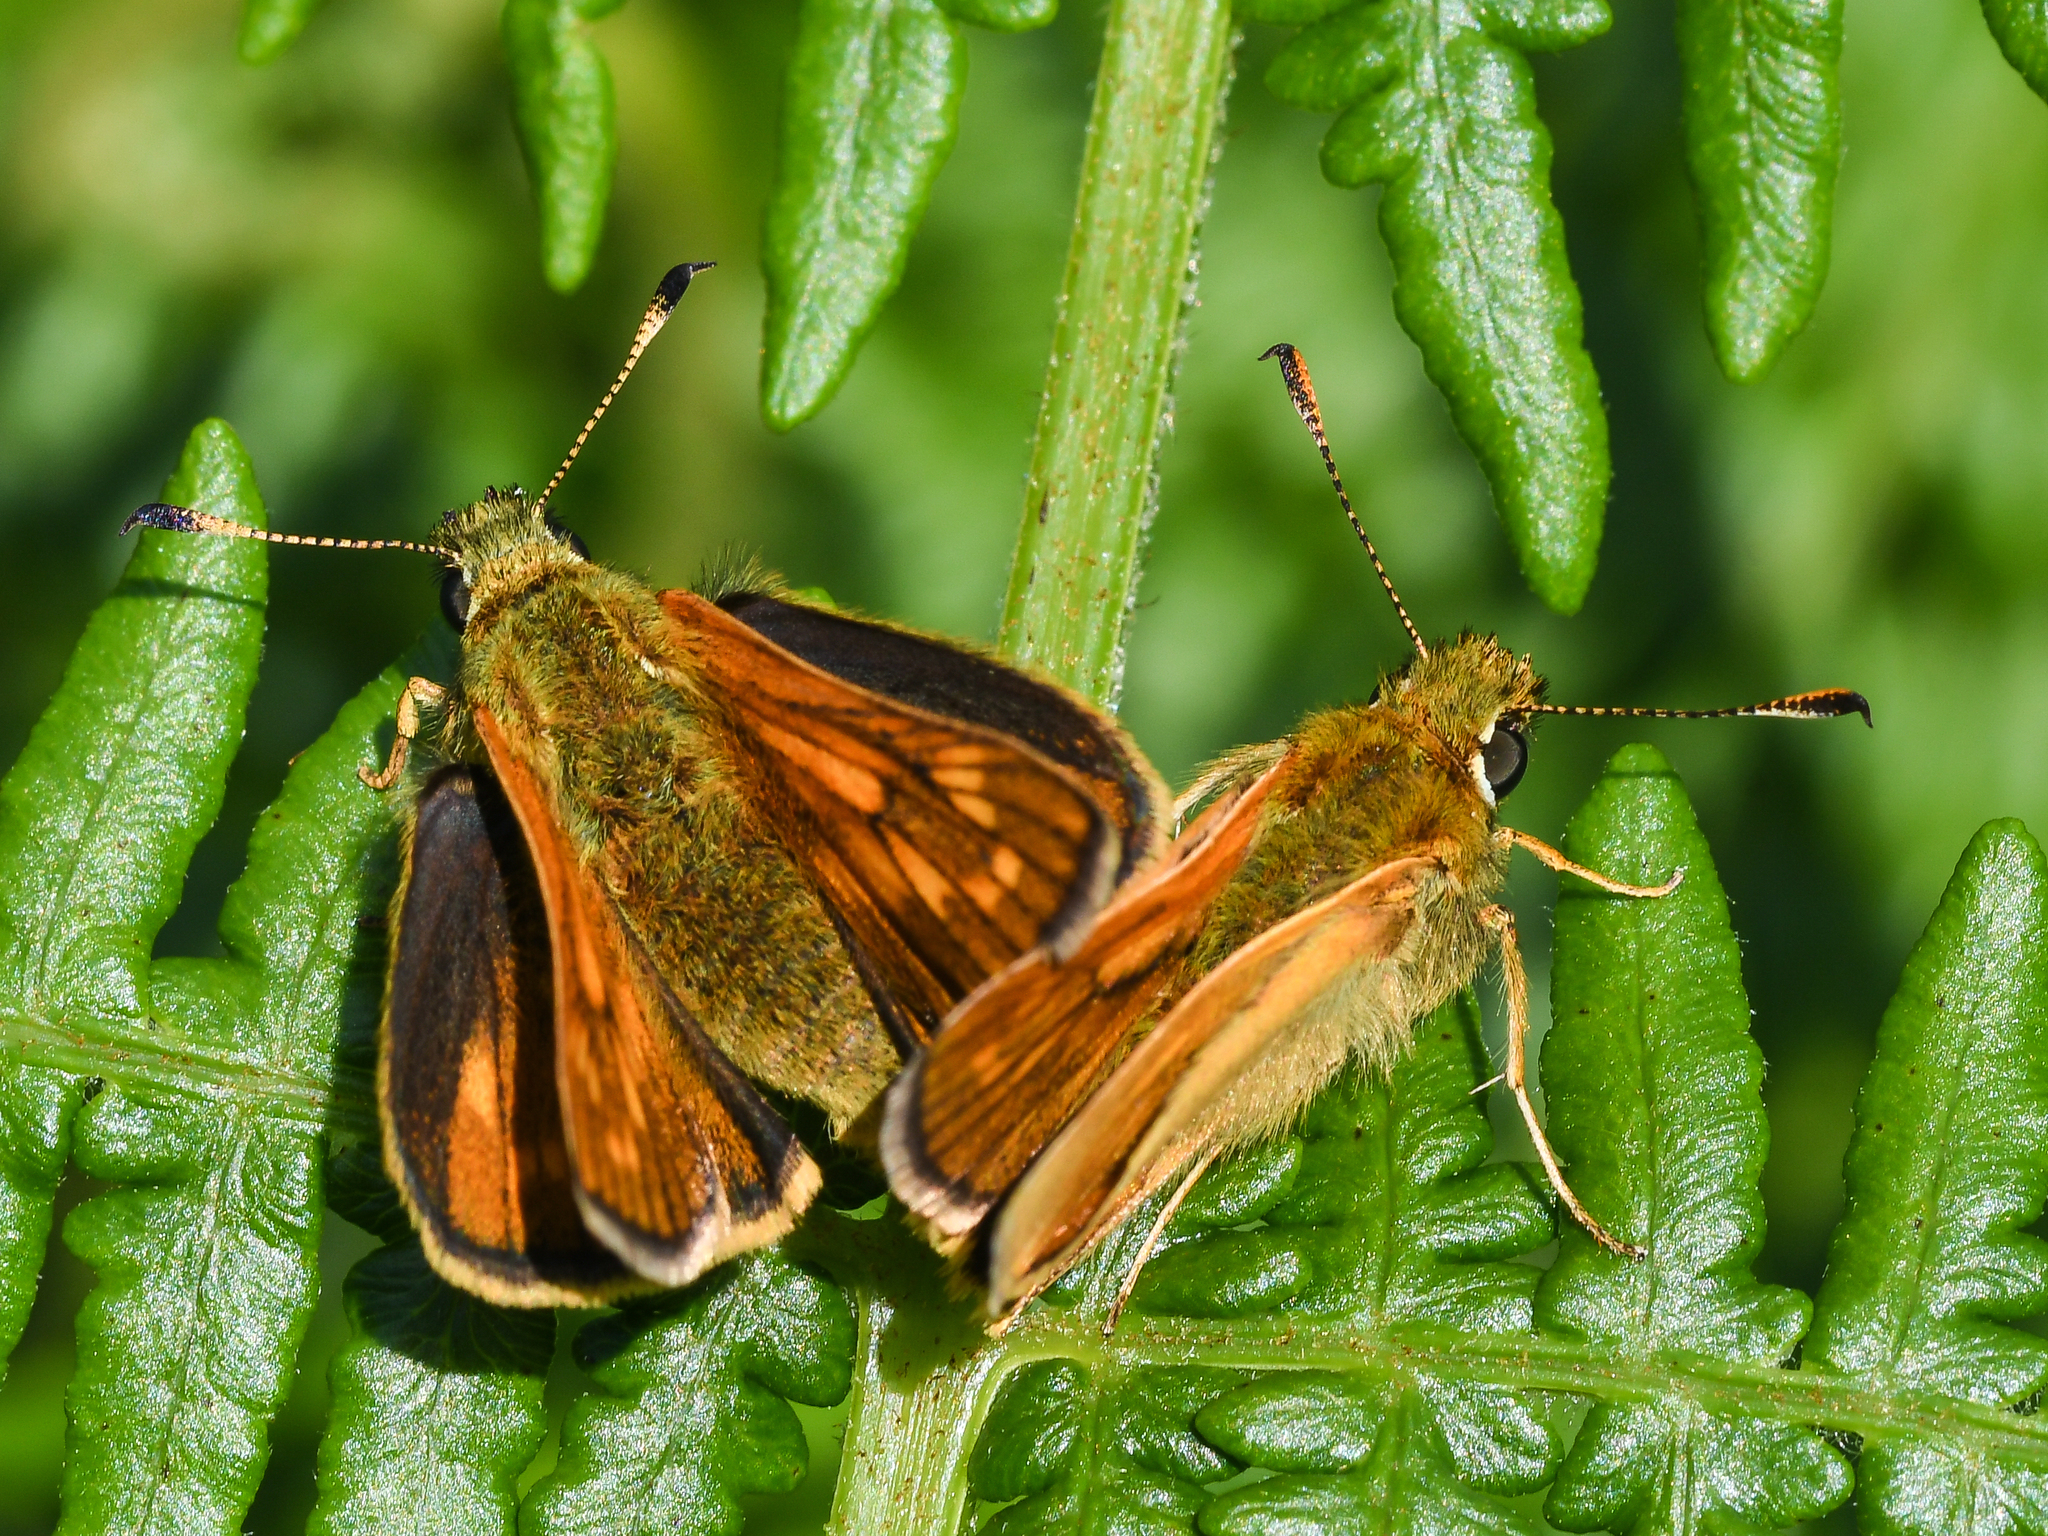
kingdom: Animalia
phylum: Arthropoda
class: Insecta
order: Lepidoptera
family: Hesperiidae
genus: Ochlodes
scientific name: Ochlodes venata
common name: Large skipper
